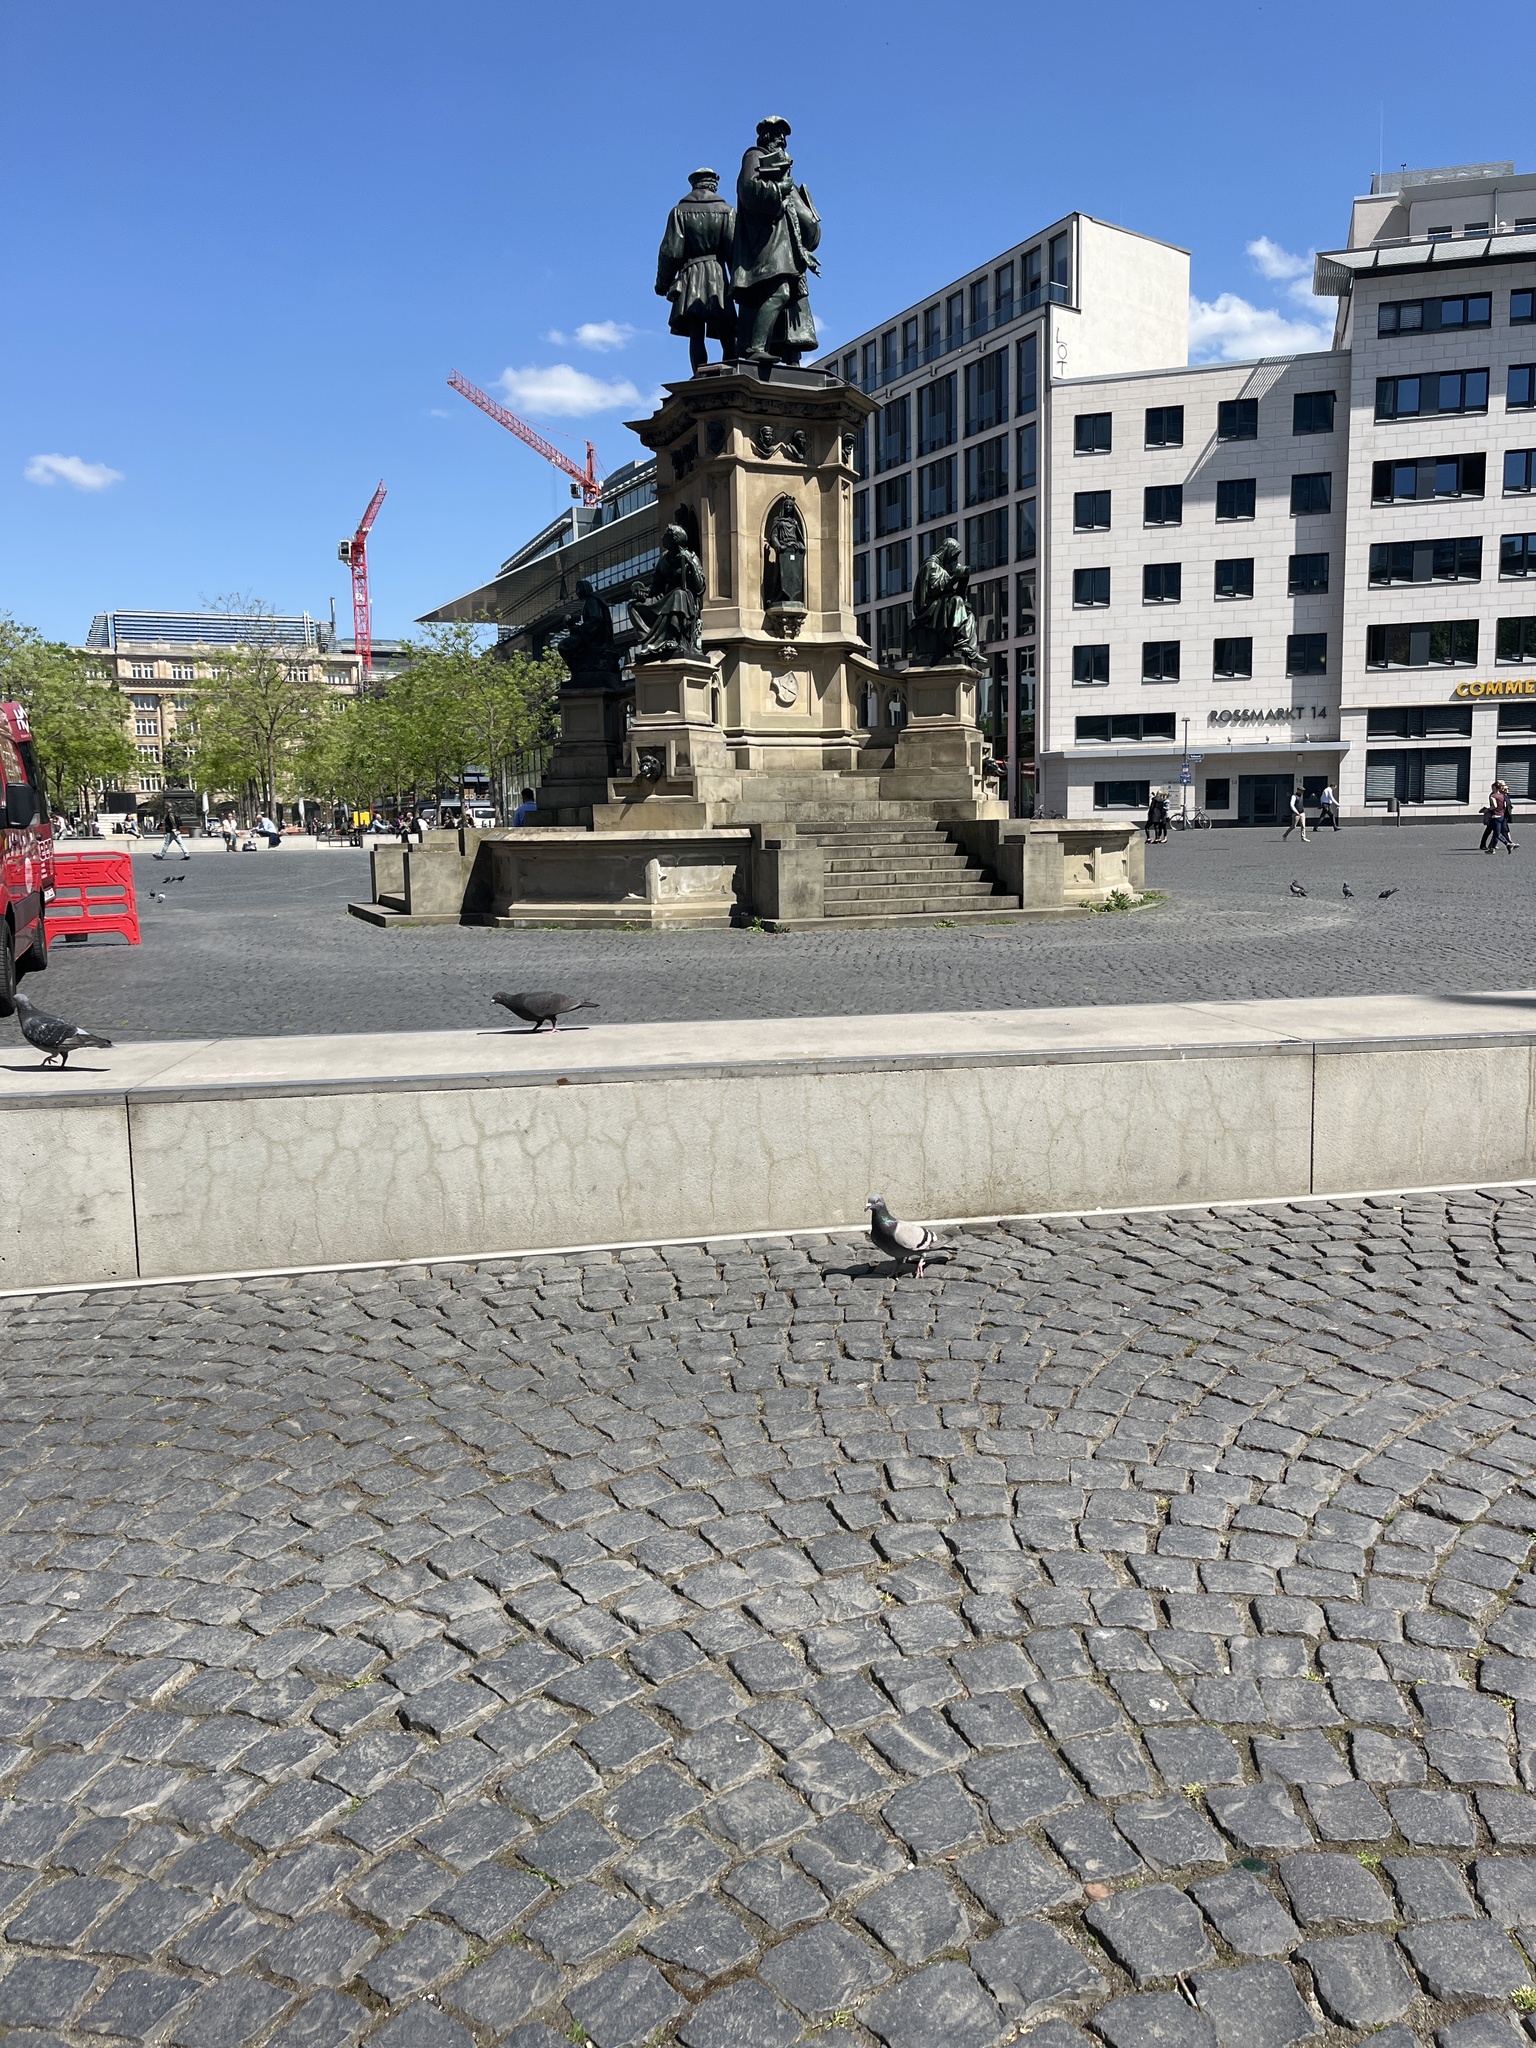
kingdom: Animalia
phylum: Chordata
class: Aves
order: Columbiformes
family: Columbidae
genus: Columba
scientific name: Columba livia
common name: Rock pigeon
